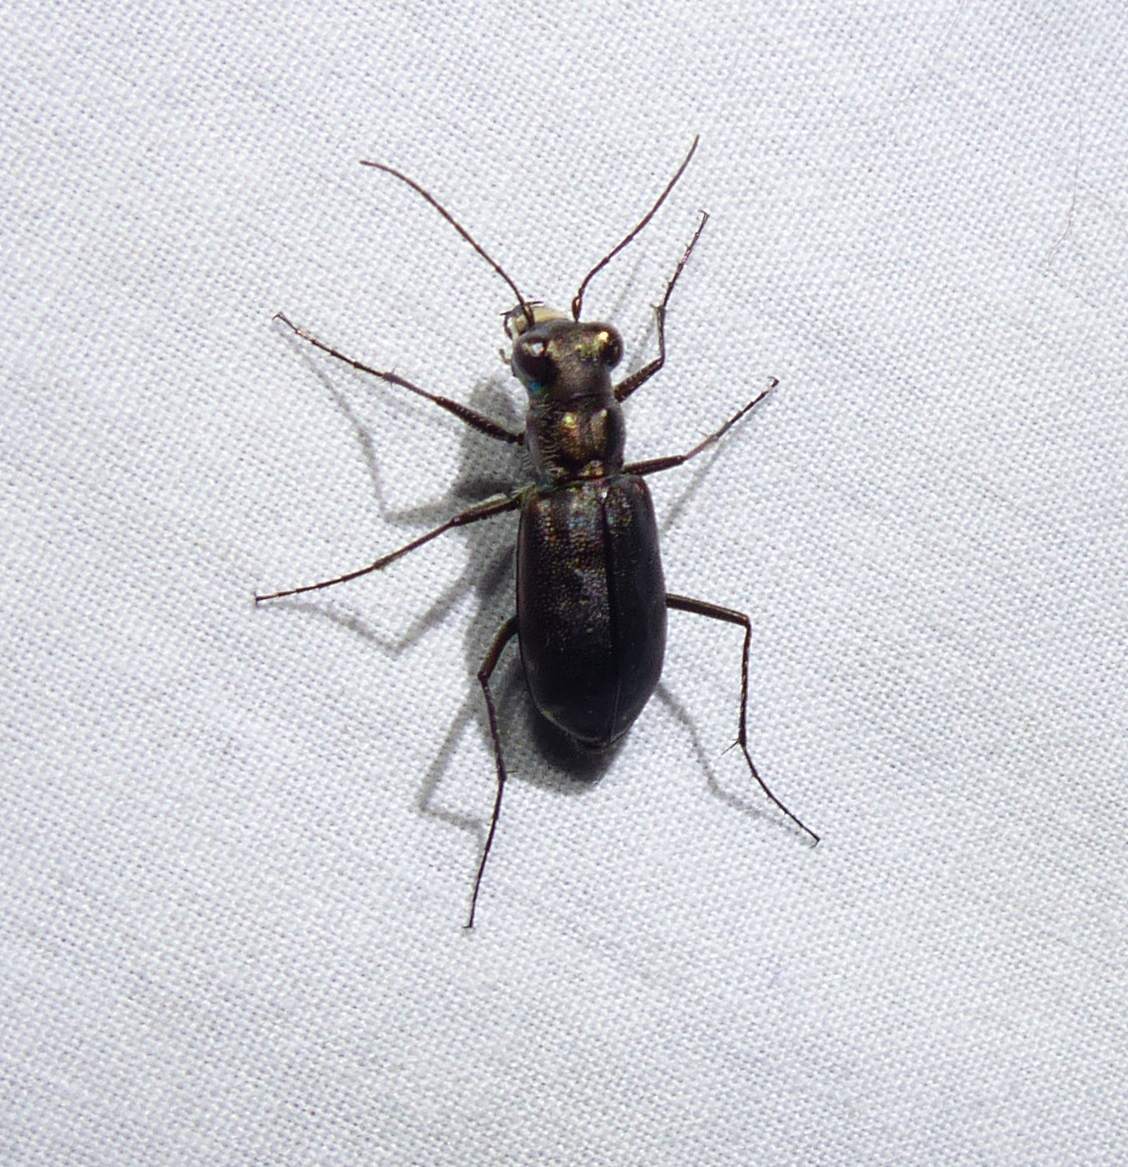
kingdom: Animalia
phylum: Arthropoda
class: Insecta
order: Coleoptera
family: Carabidae
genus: Cicindela
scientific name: Cicindela punctulata
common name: Punctured tiger beetle
